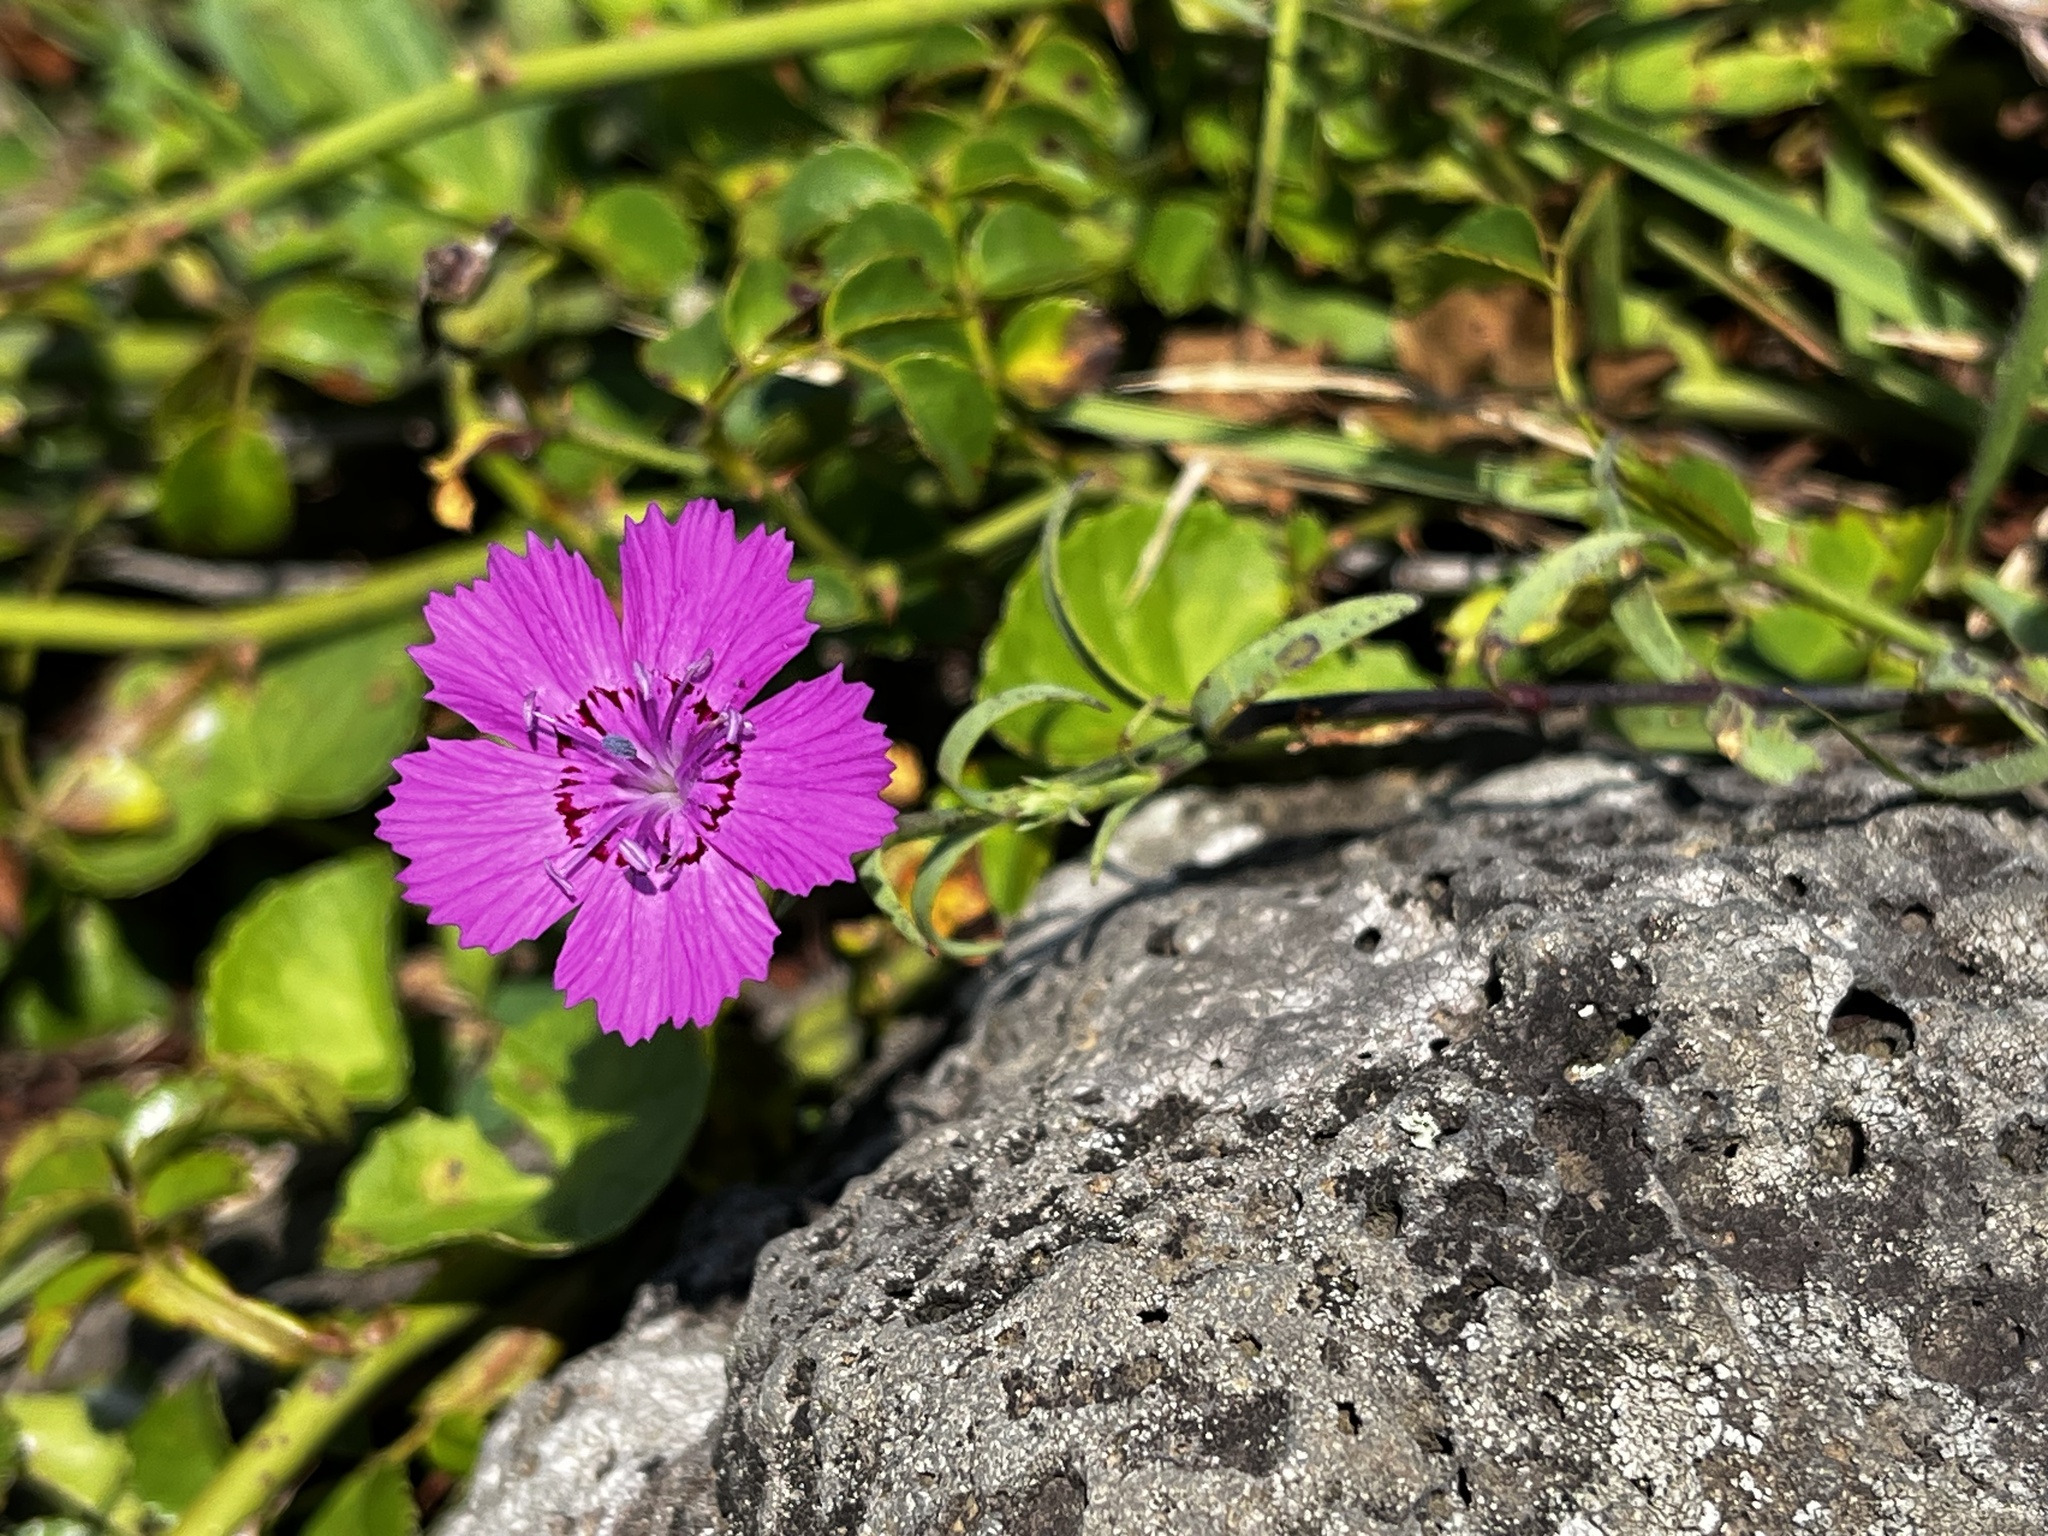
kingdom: Plantae
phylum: Tracheophyta
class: Magnoliopsida
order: Caryophyllales
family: Caryophyllaceae
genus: Dianthus
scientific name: Dianthus chinensis
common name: Rainbow pink
